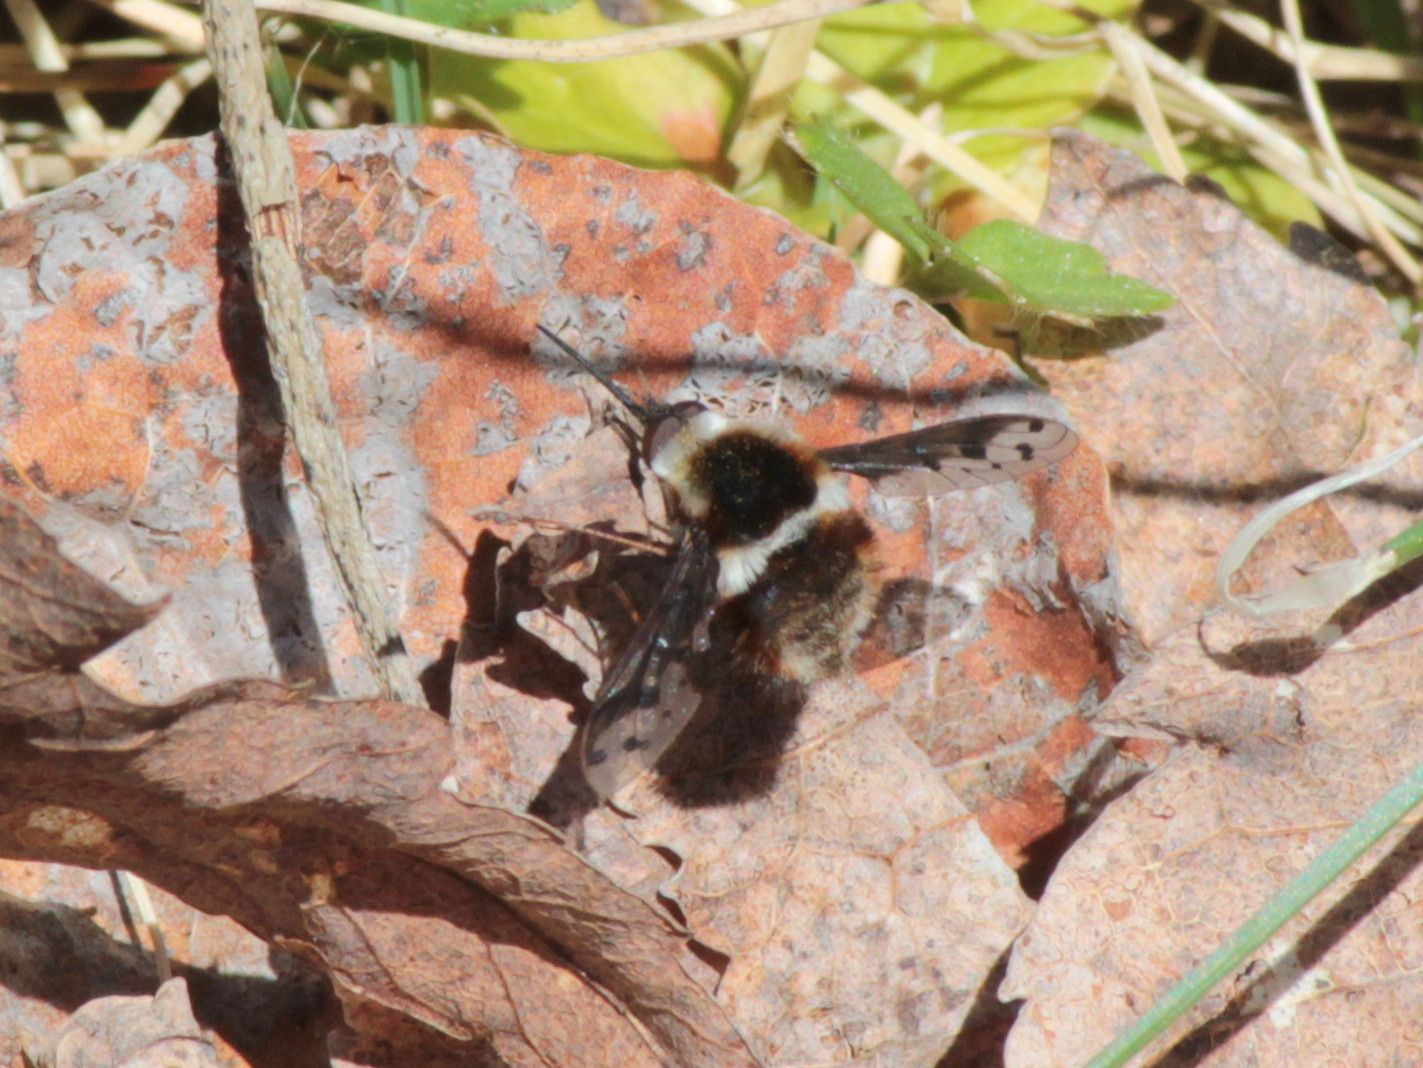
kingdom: Animalia
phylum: Arthropoda
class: Insecta
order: Diptera
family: Bombyliidae
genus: Bombylius
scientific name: Bombylius pygmaeus
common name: Pygmy bee fly
